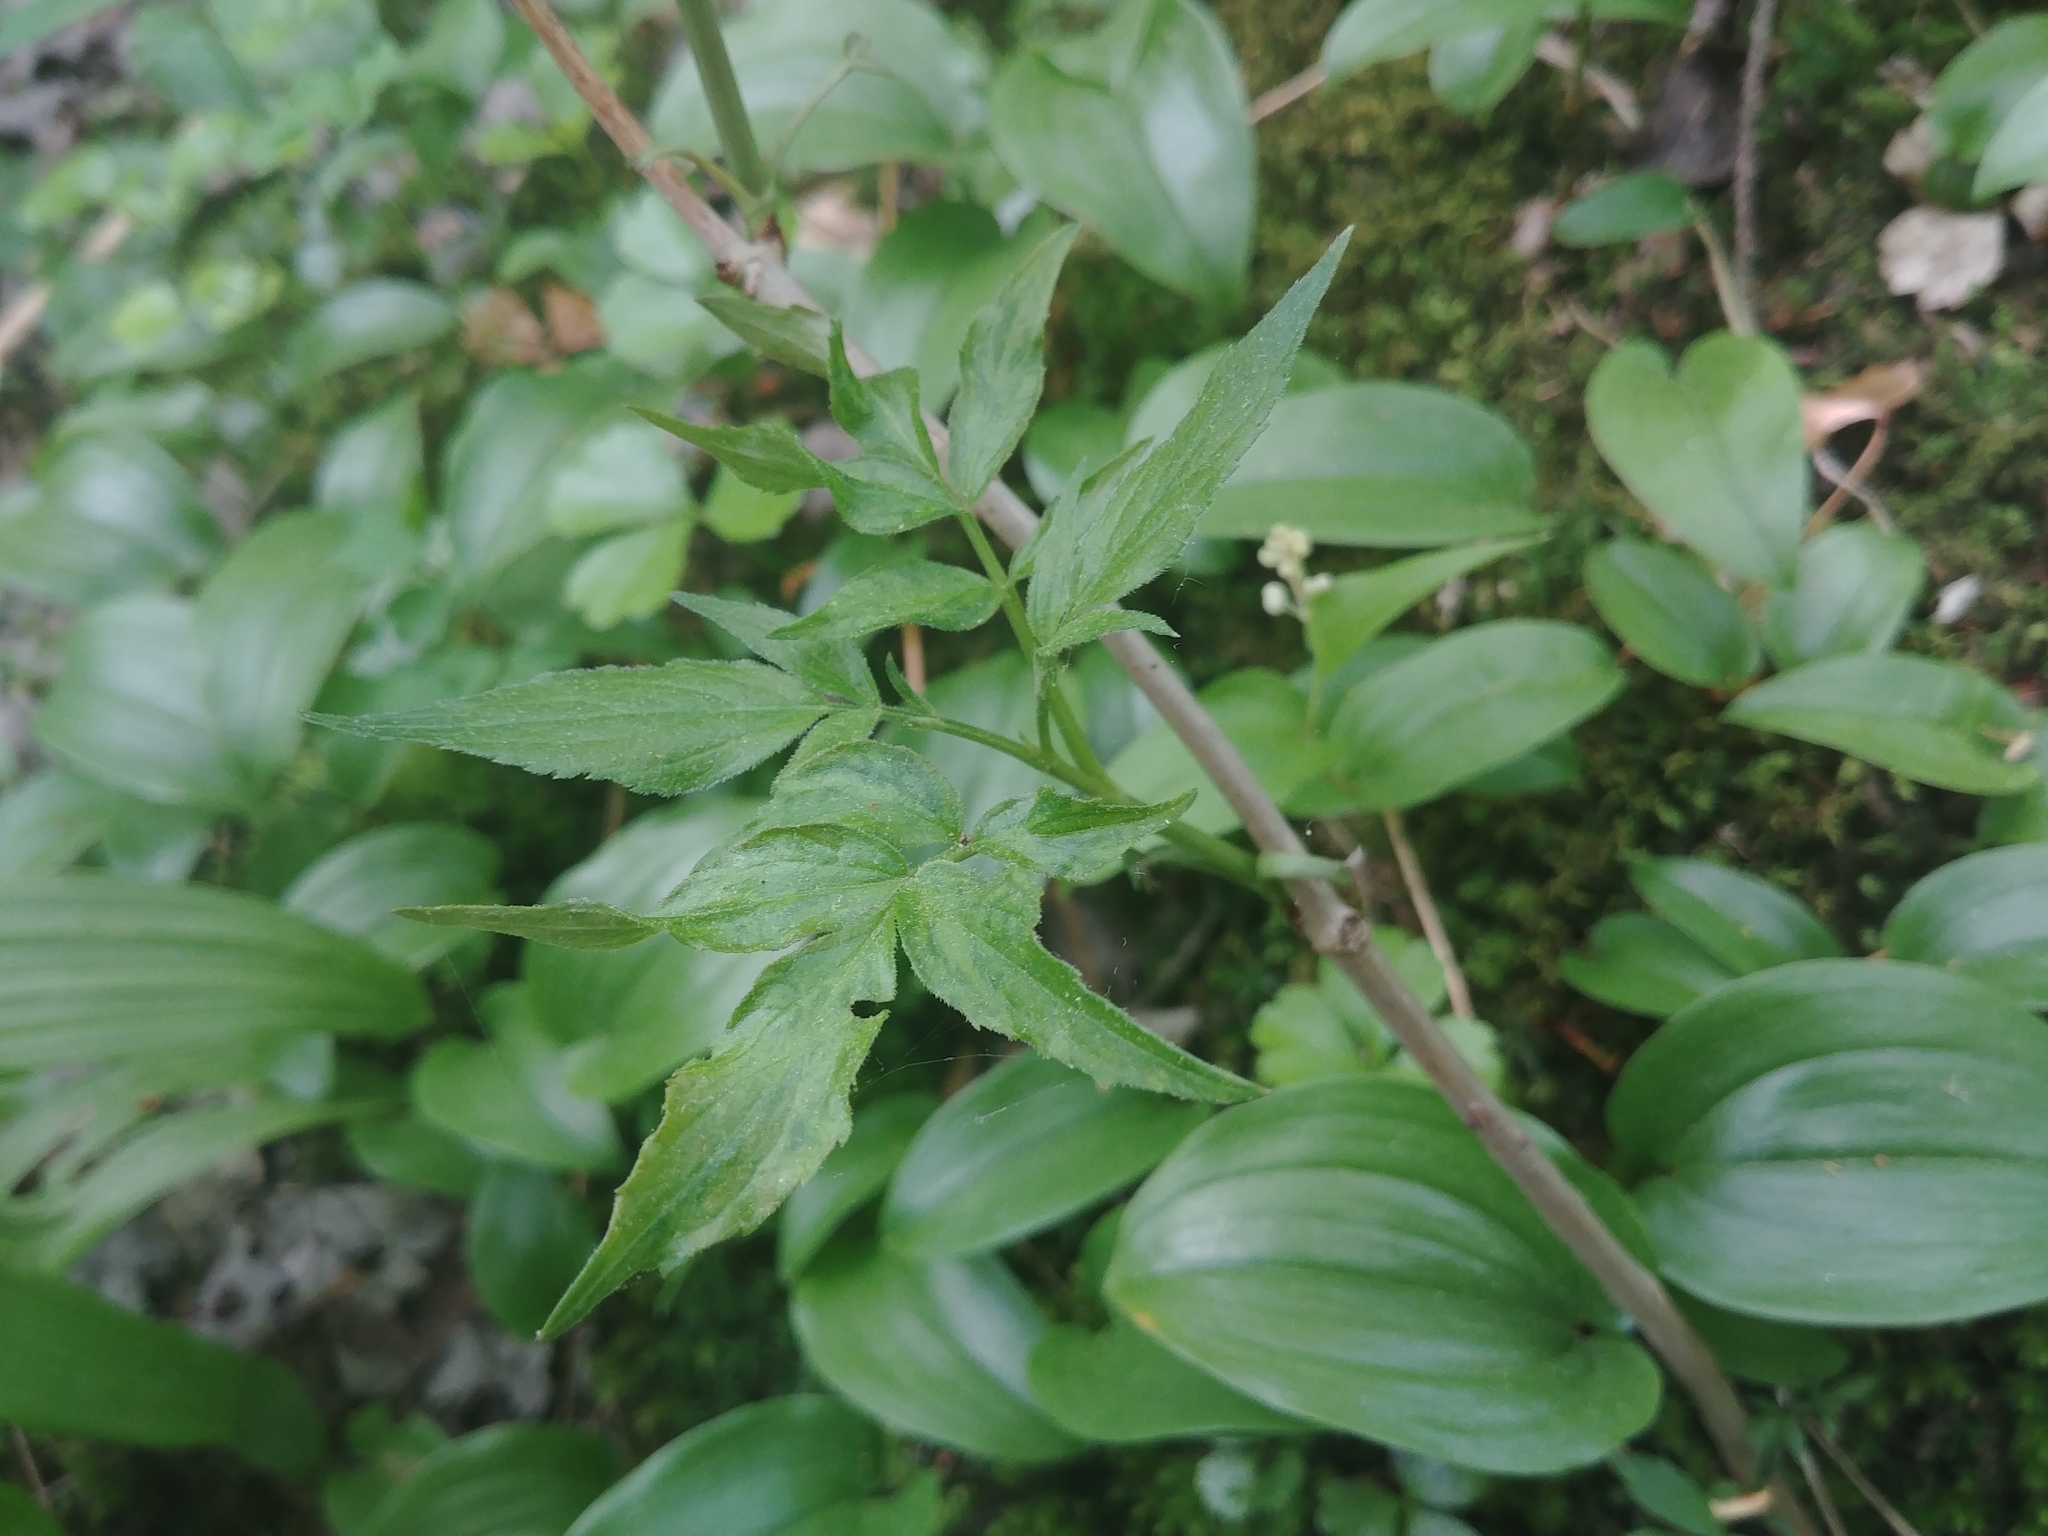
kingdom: Plantae
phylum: Tracheophyta
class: Magnoliopsida
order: Dipsacales
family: Viburnaceae
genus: Sambucus
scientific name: Sambucus racemosa
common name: Red-berried elder
